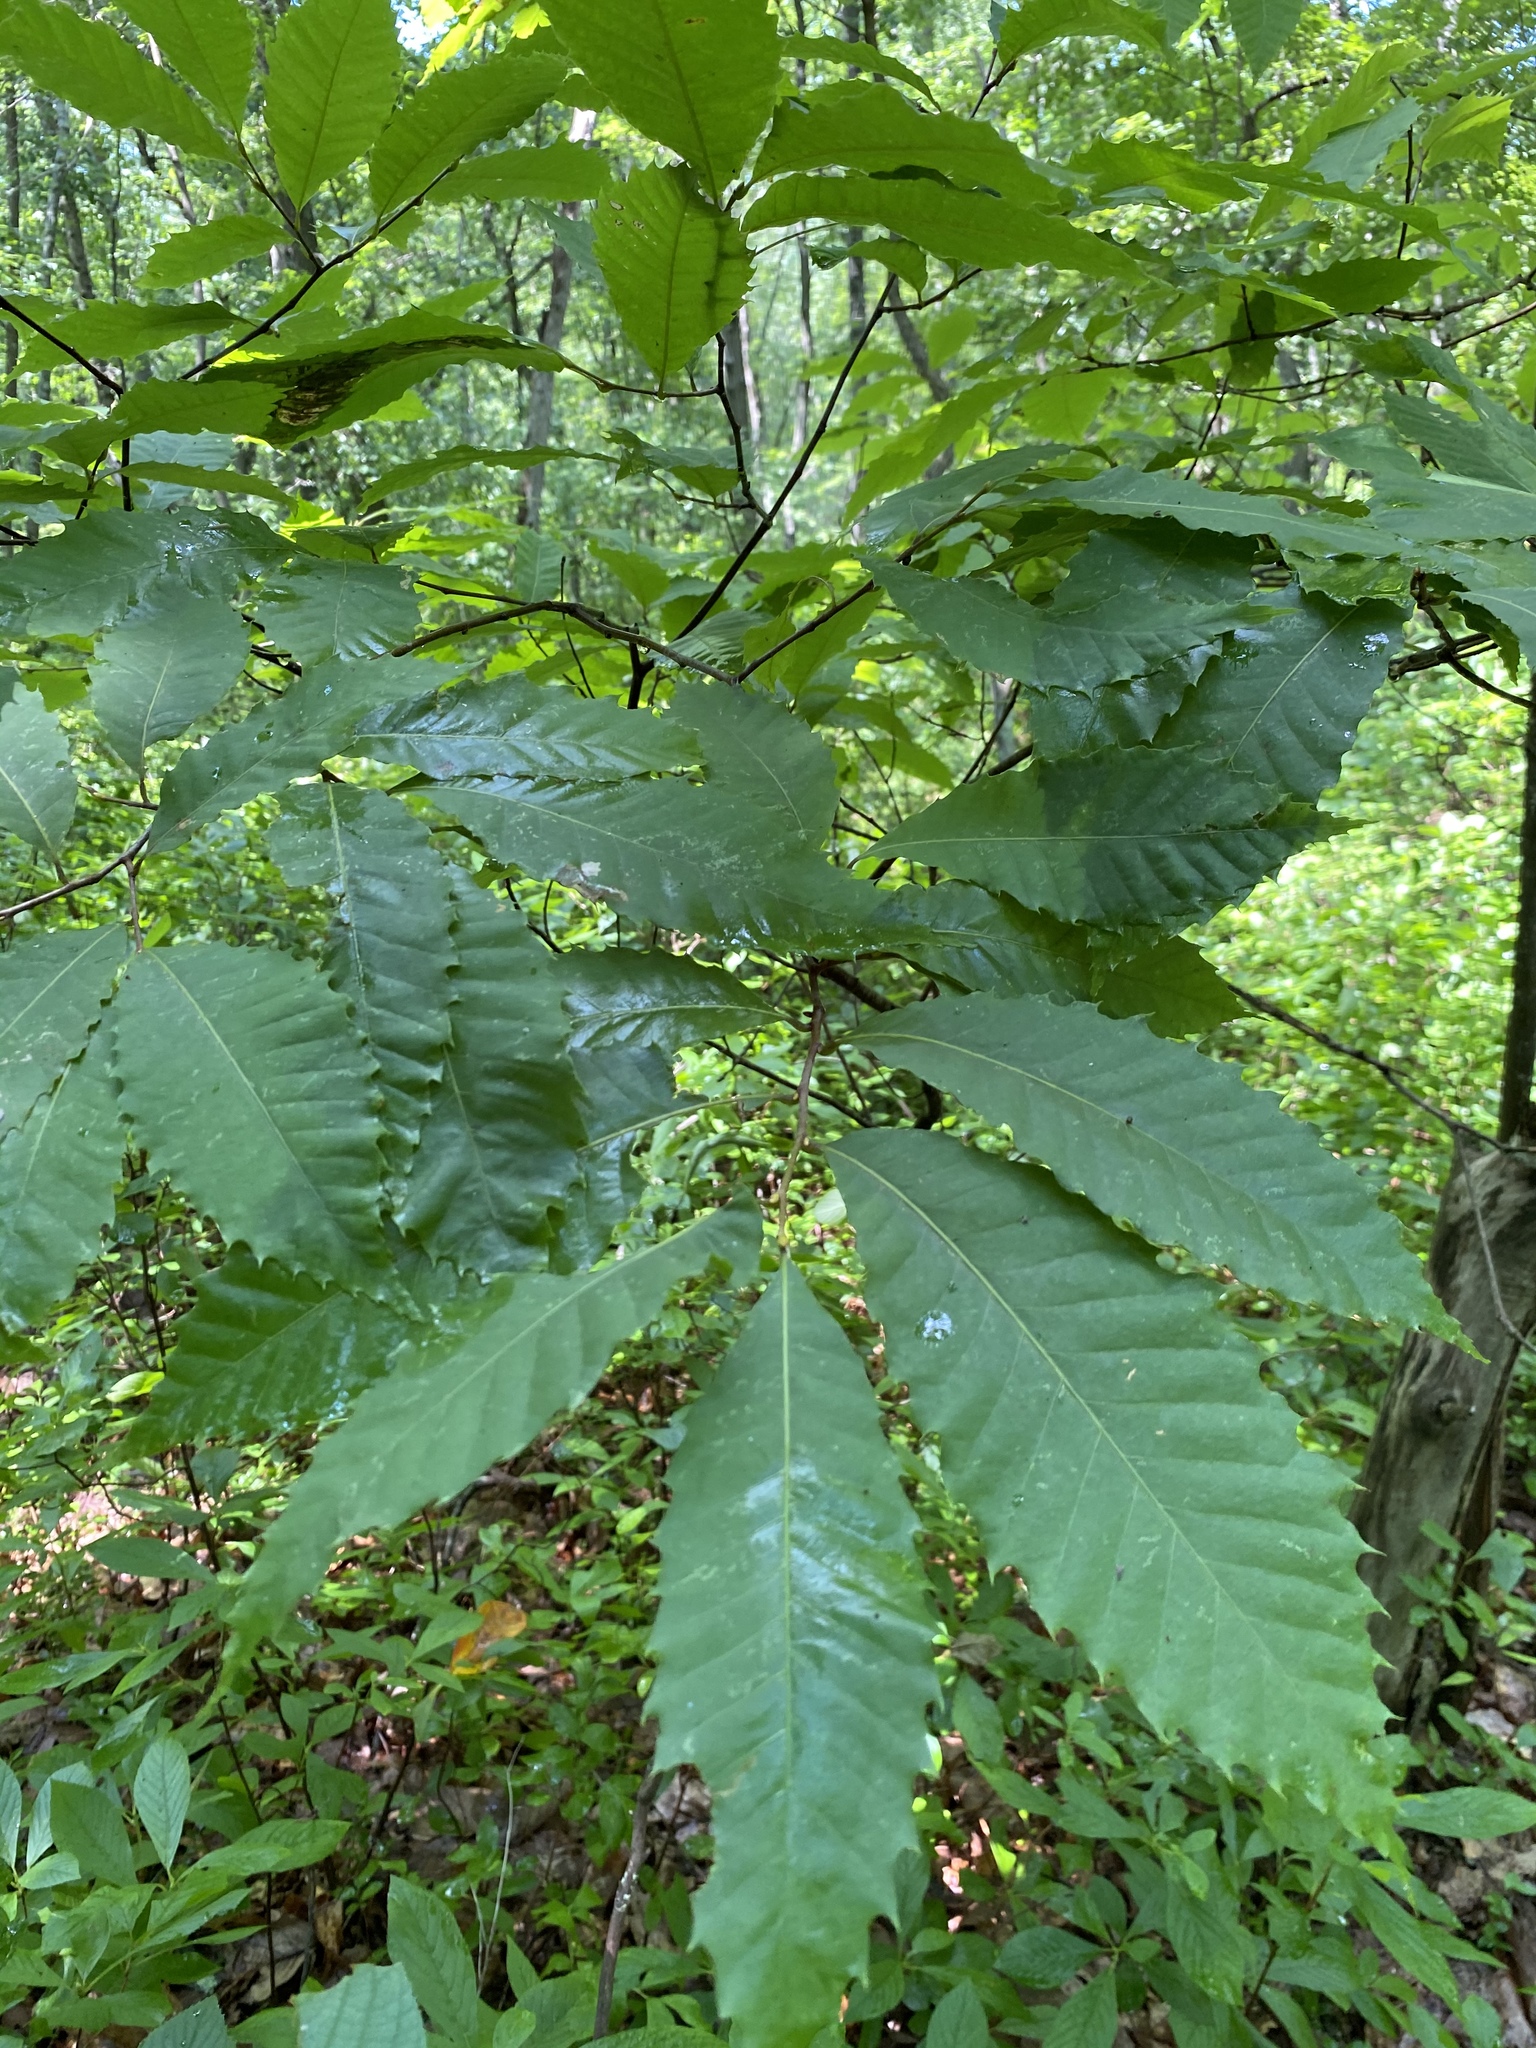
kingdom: Plantae
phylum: Tracheophyta
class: Magnoliopsida
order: Fagales
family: Fagaceae
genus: Castanea
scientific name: Castanea dentata
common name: American chestnut
